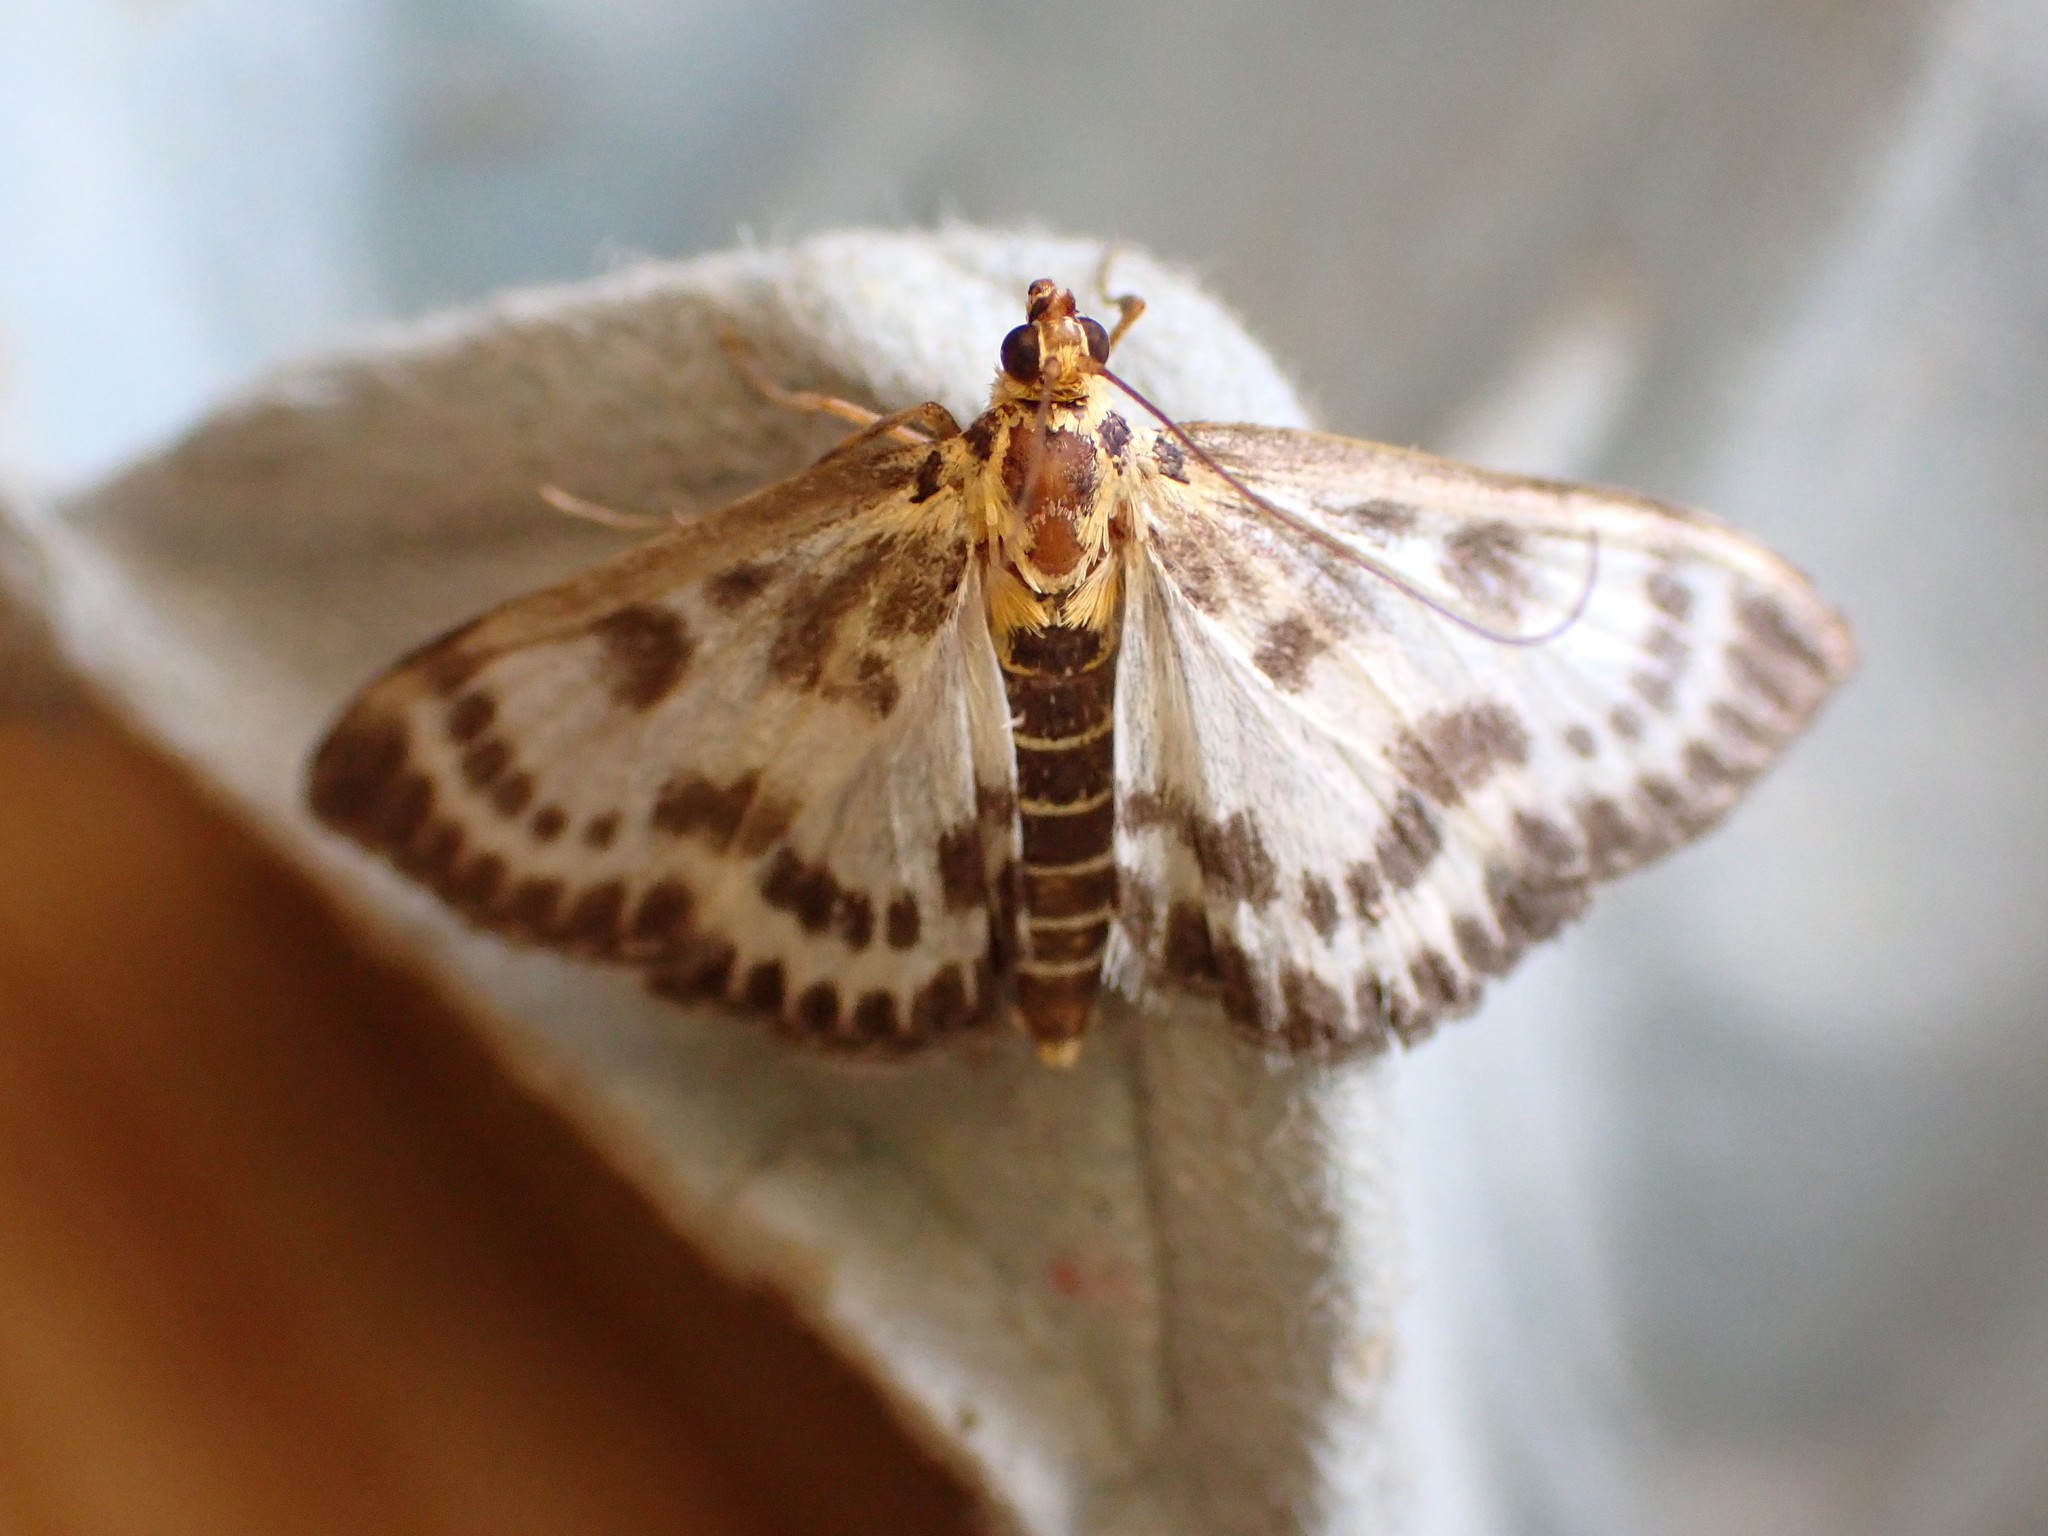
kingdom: Animalia
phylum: Arthropoda
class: Insecta
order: Lepidoptera
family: Crambidae
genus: Anania
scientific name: Anania hortulata
